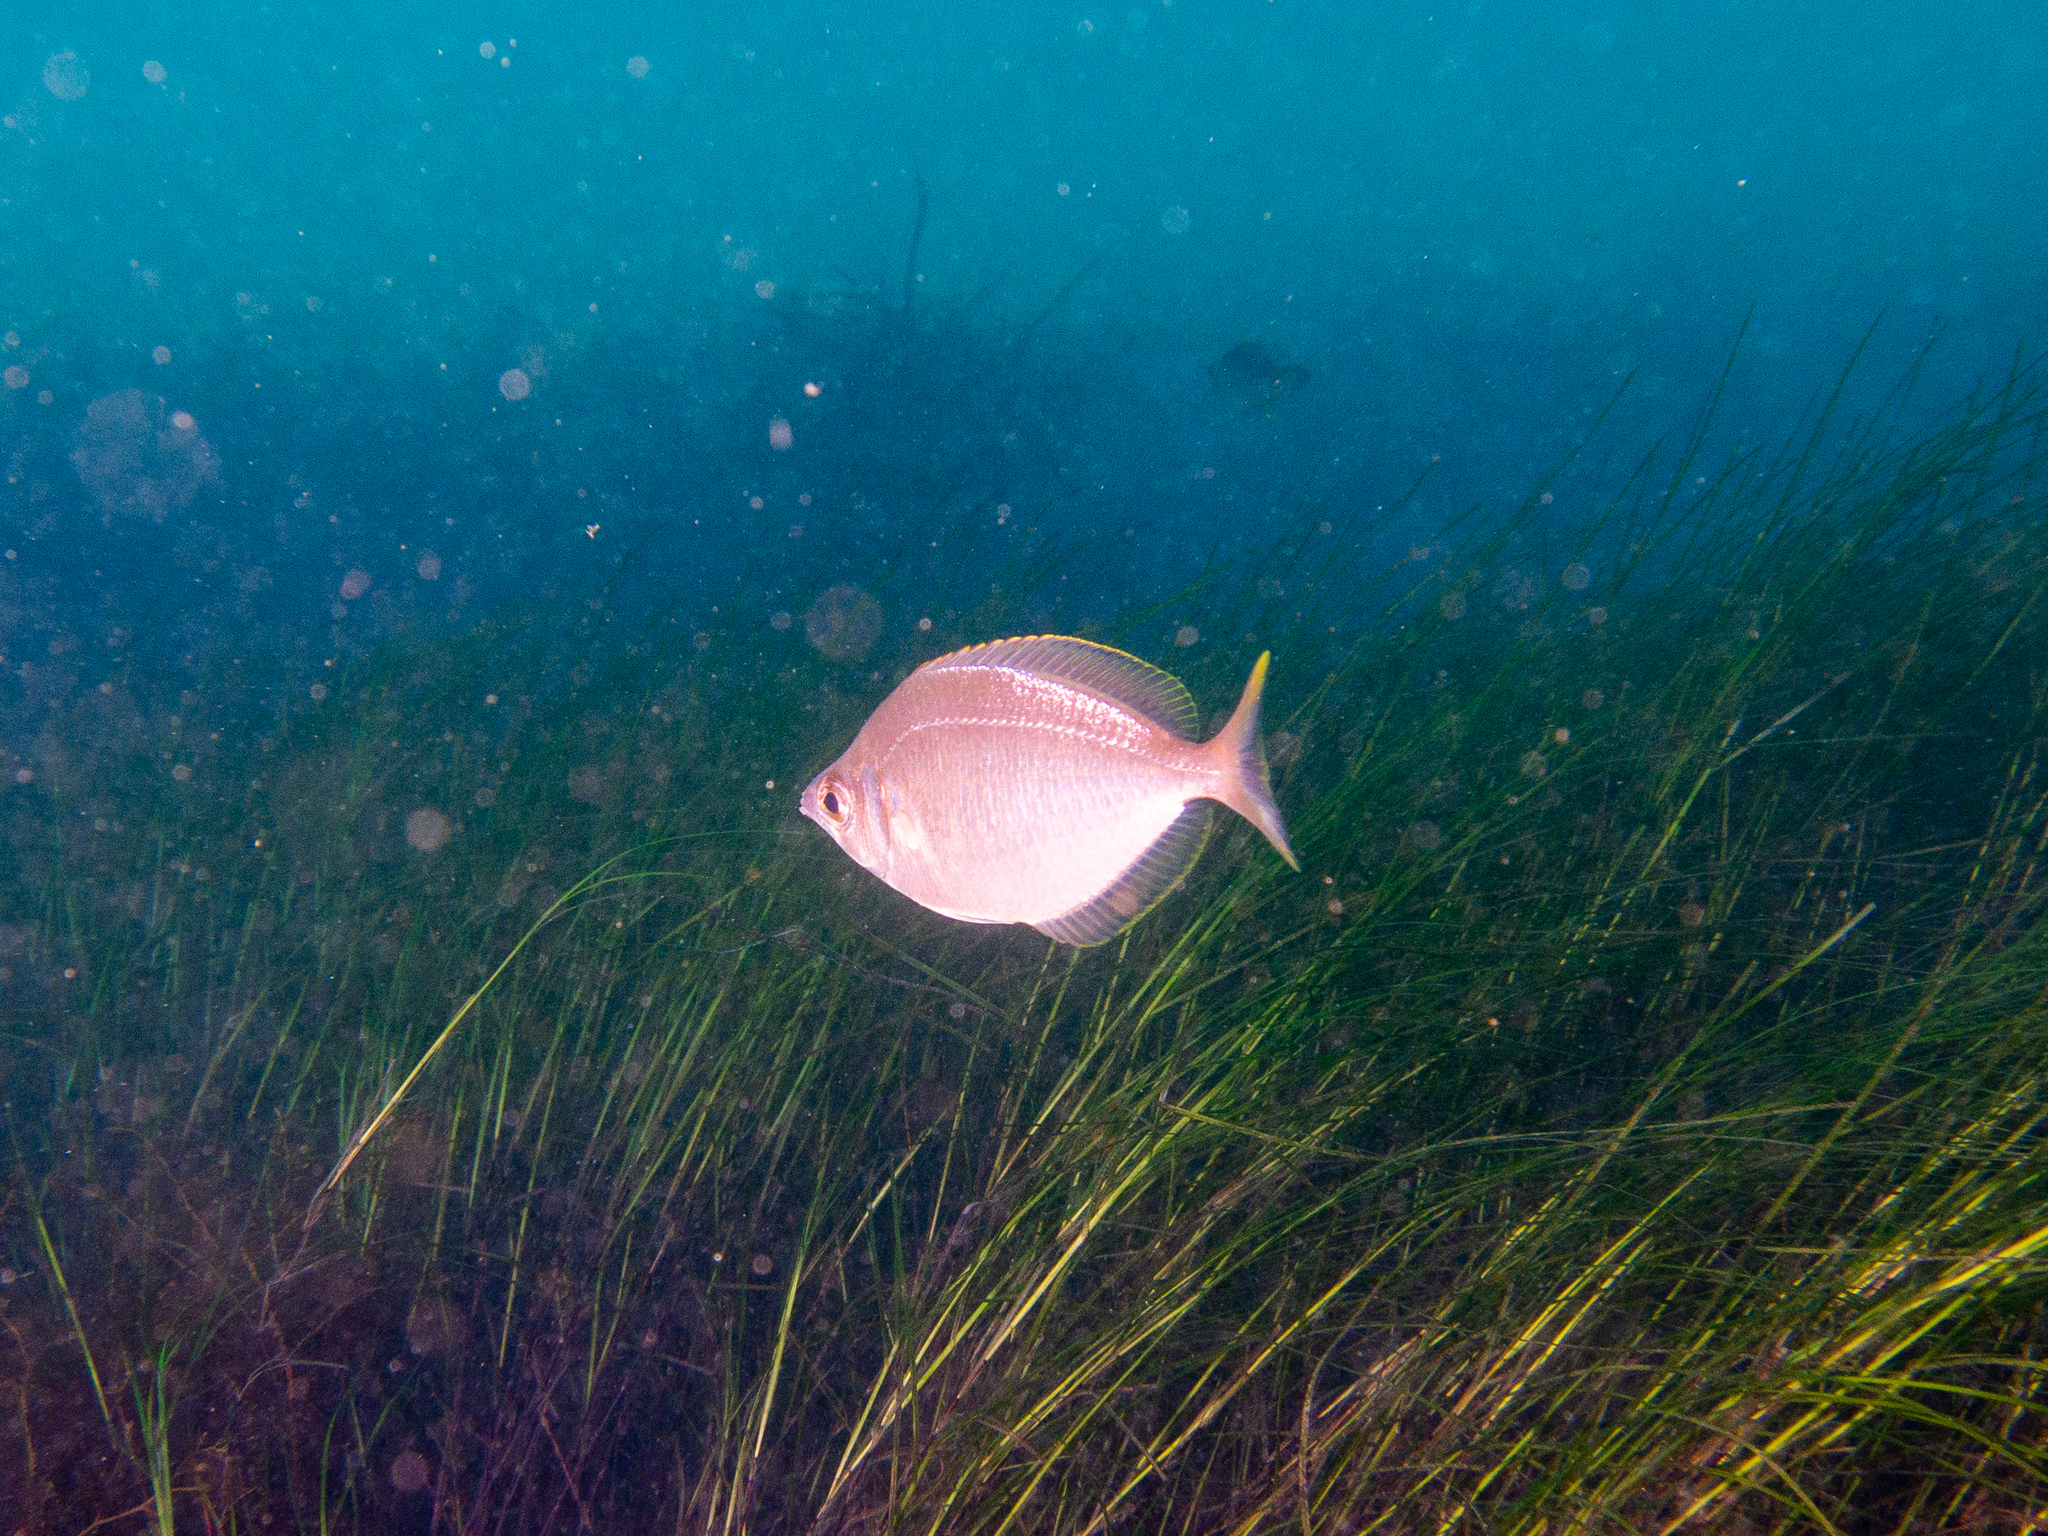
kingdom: Animalia
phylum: Chordata
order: Perciformes
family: Gerreidae
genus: Parequula
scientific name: Parequula melbournensis
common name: Silverbelly
